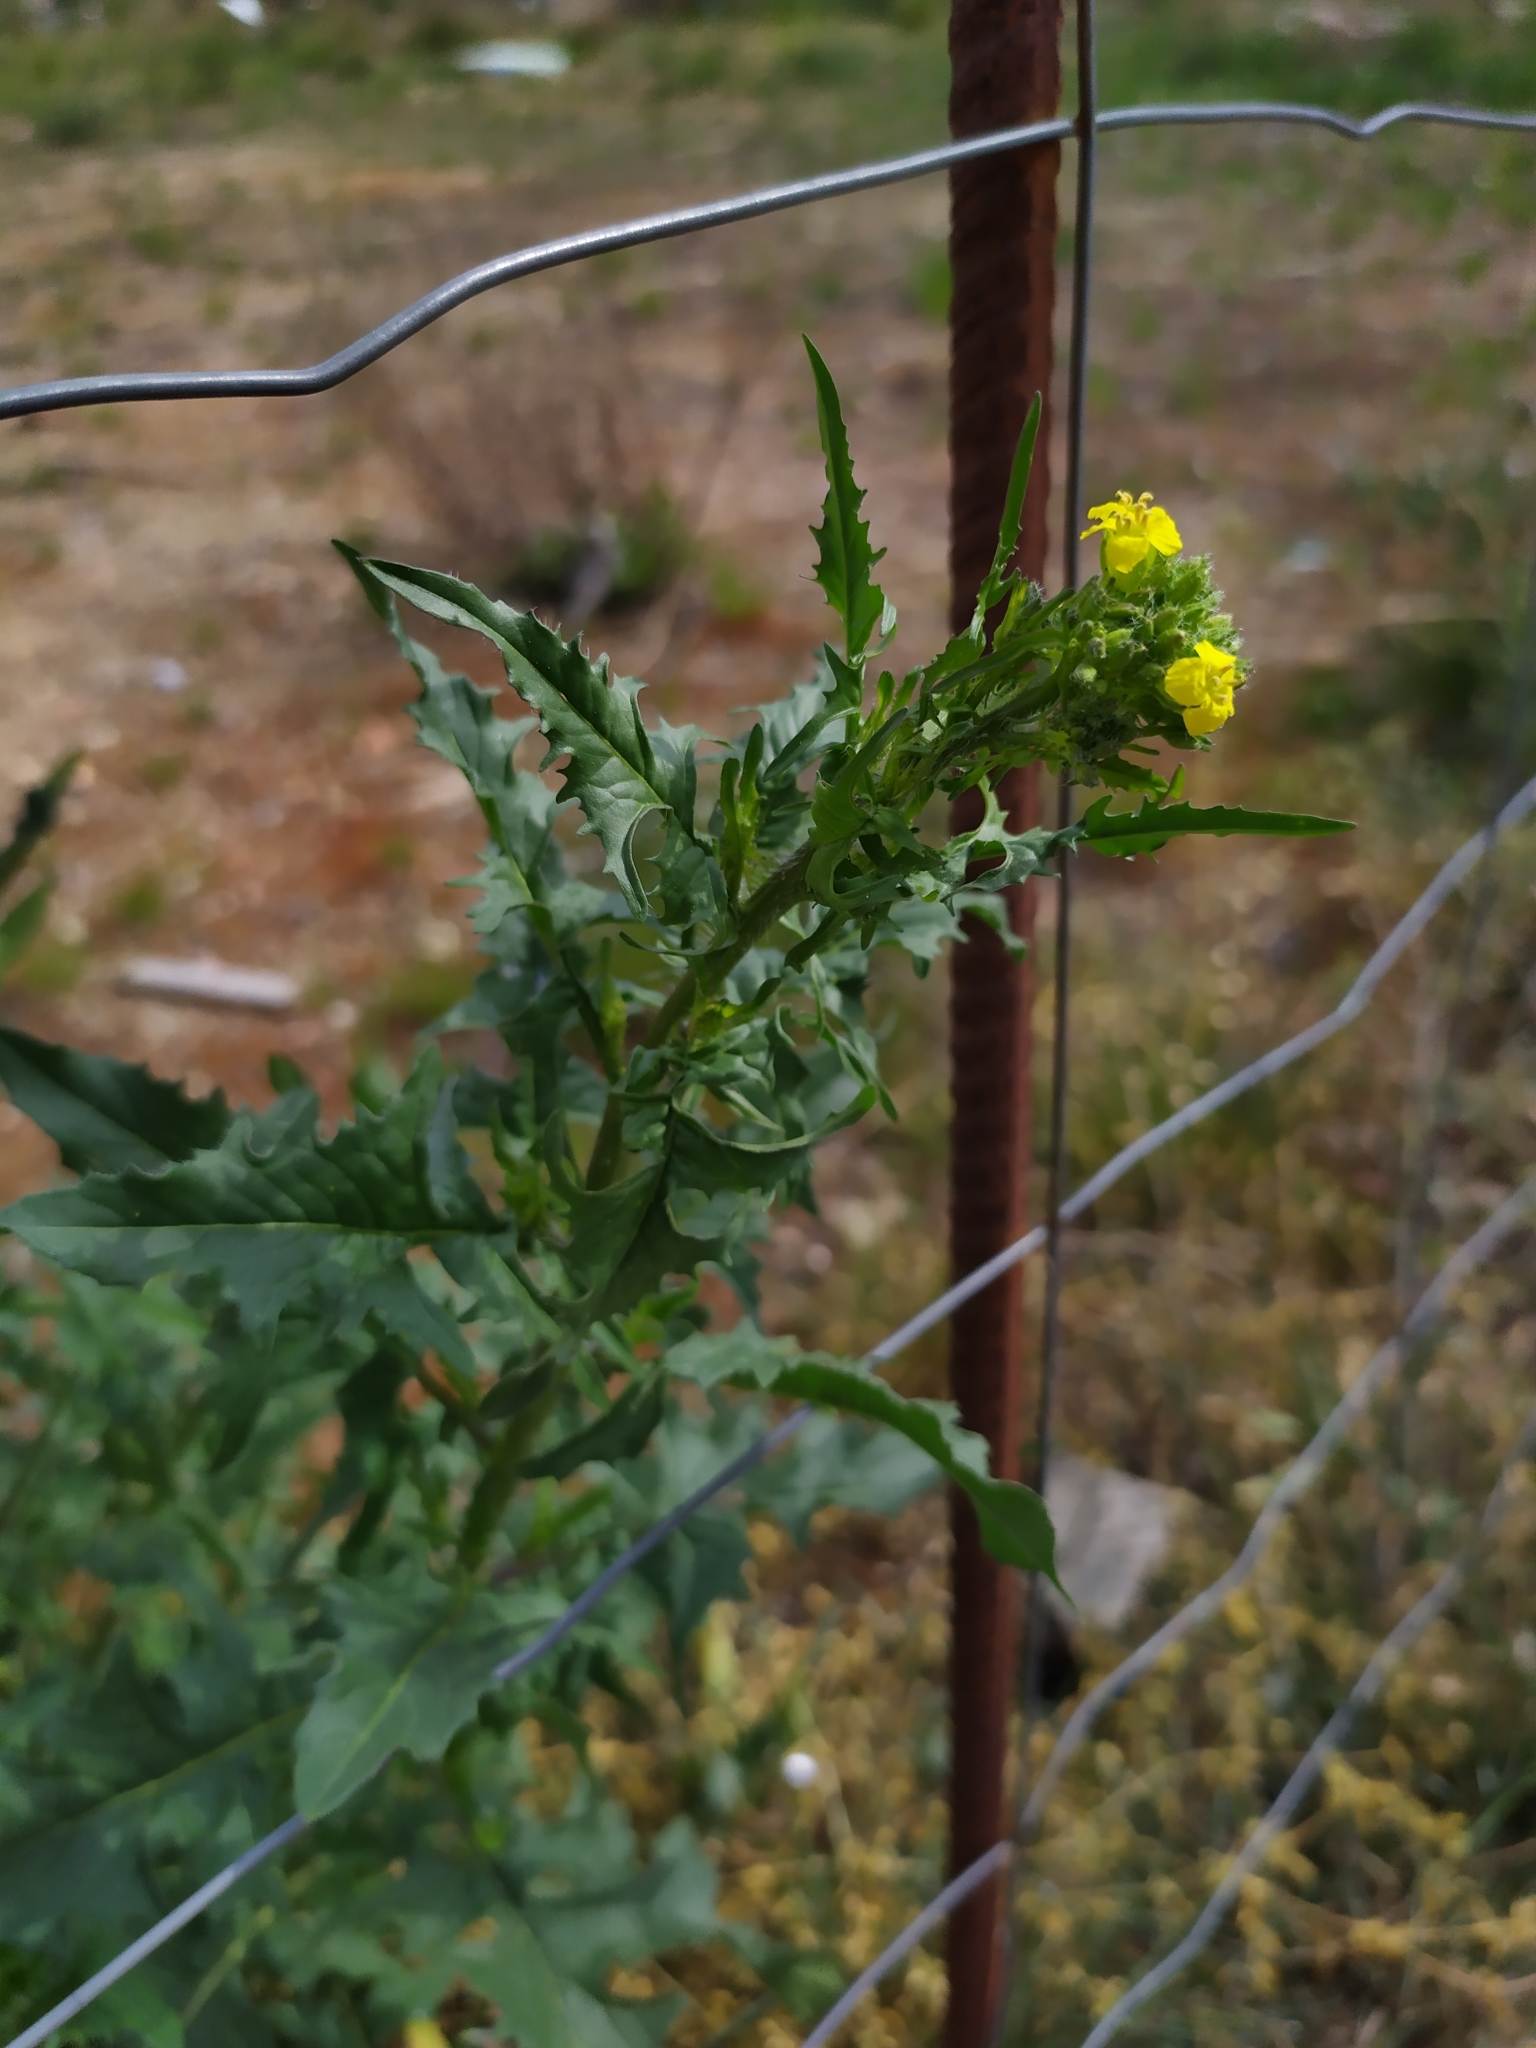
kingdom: Plantae
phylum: Tracheophyta
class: Magnoliopsida
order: Brassicales
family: Brassicaceae
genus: Bunias
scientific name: Bunias orientalis
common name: Warty-cabbage
